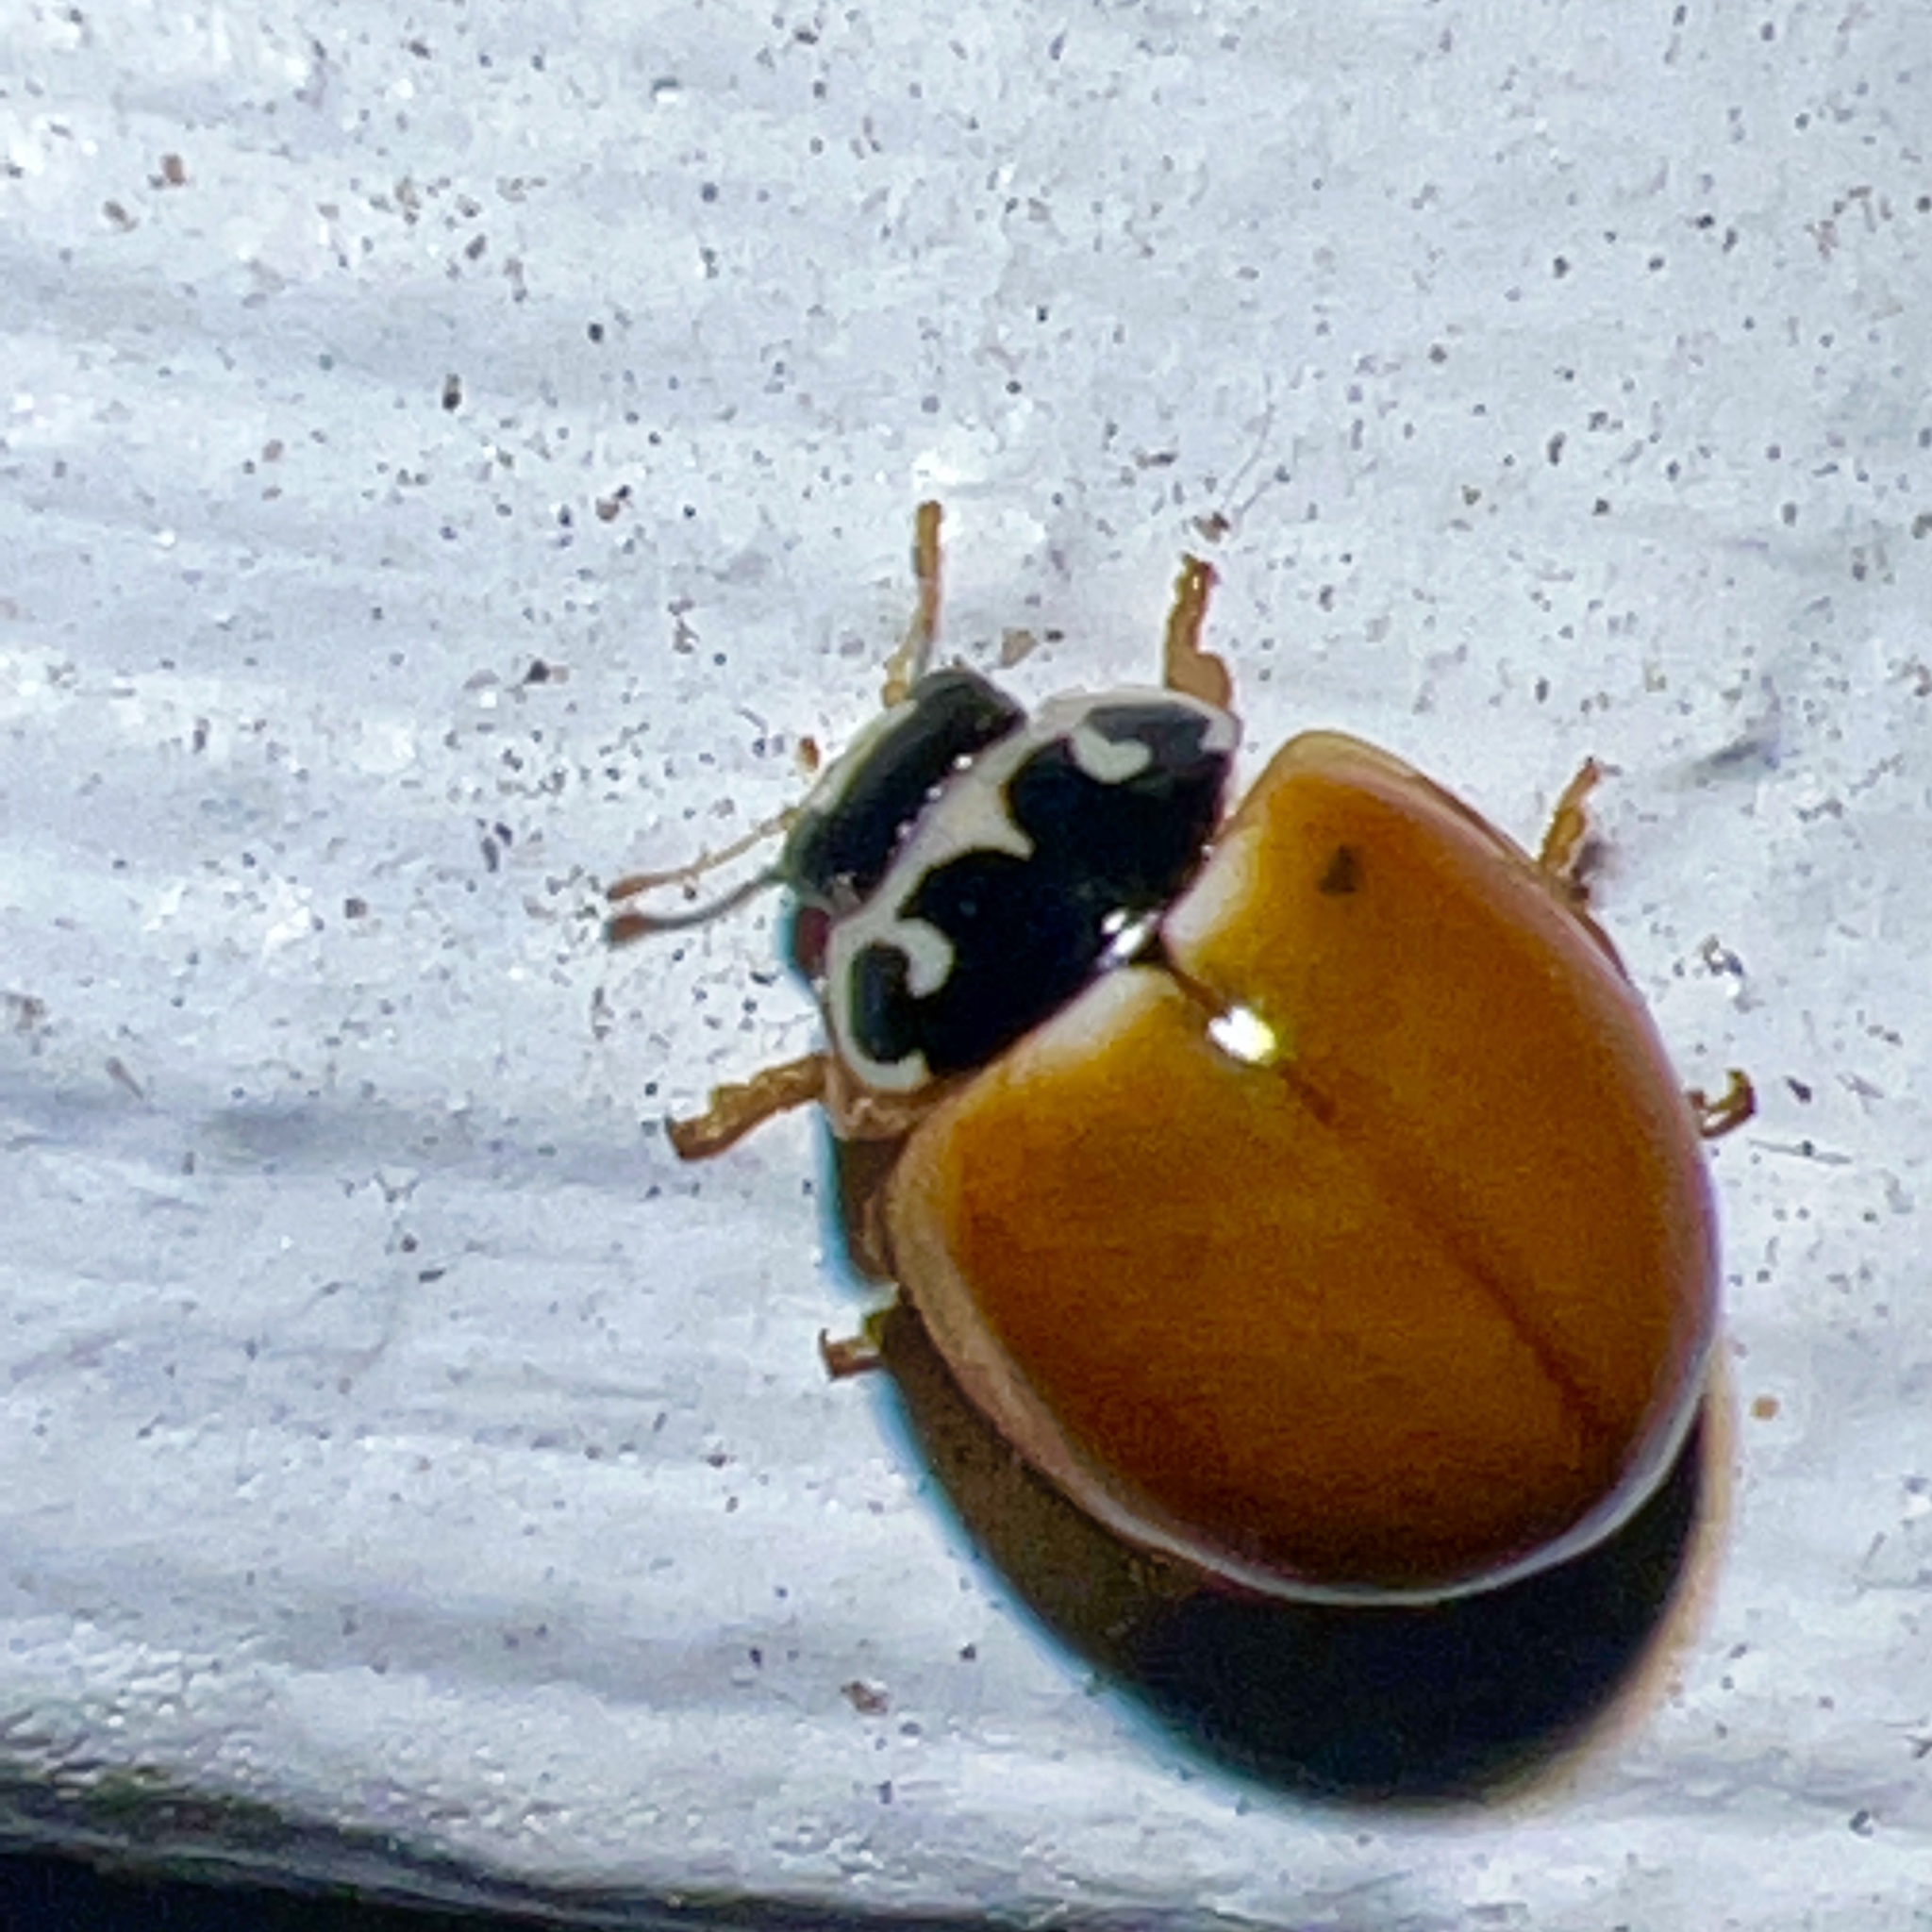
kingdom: Animalia
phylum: Arthropoda
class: Insecta
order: Coleoptera
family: Coccinellidae
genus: Cycloneda
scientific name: Cycloneda munda
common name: Polished lady beetle
